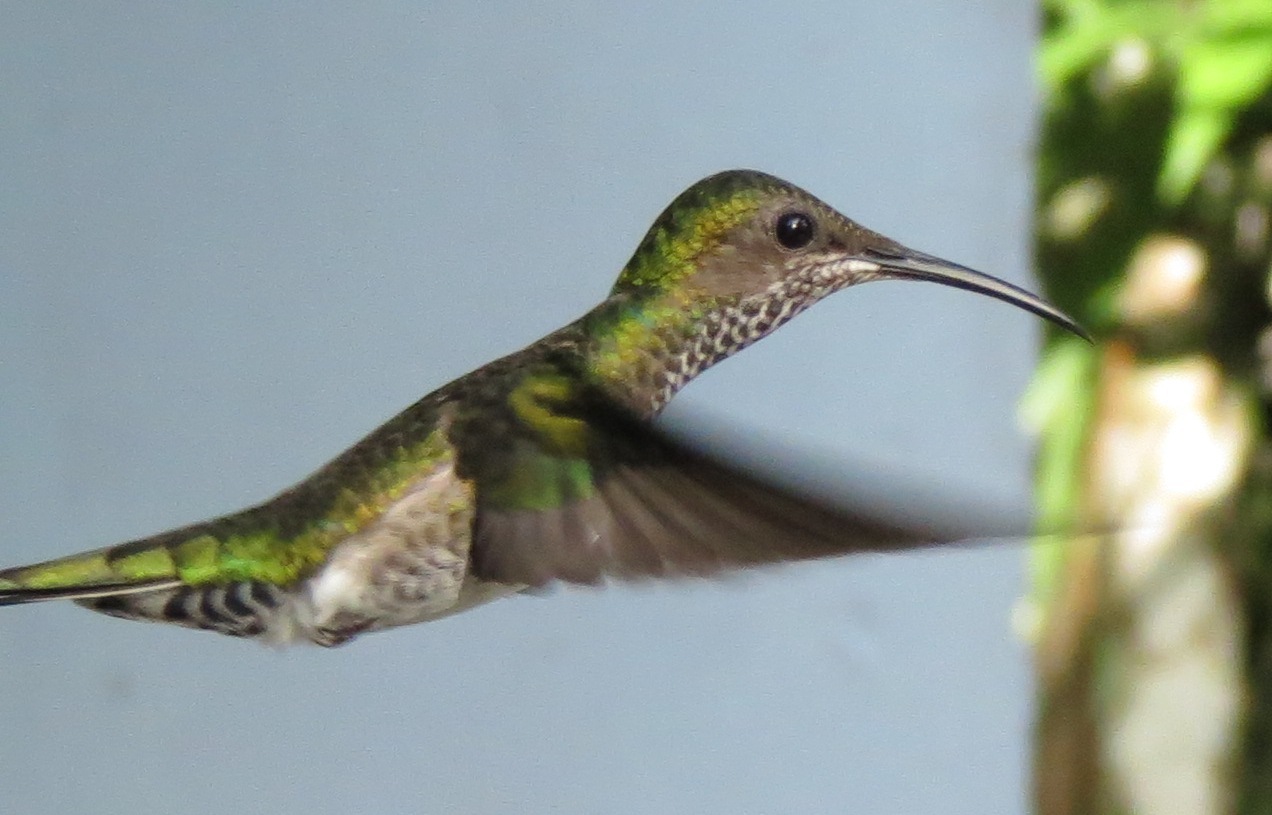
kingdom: Animalia
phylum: Chordata
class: Aves
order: Apodiformes
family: Trochilidae
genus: Florisuga
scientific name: Florisuga mellivora
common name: White-necked jacobin
